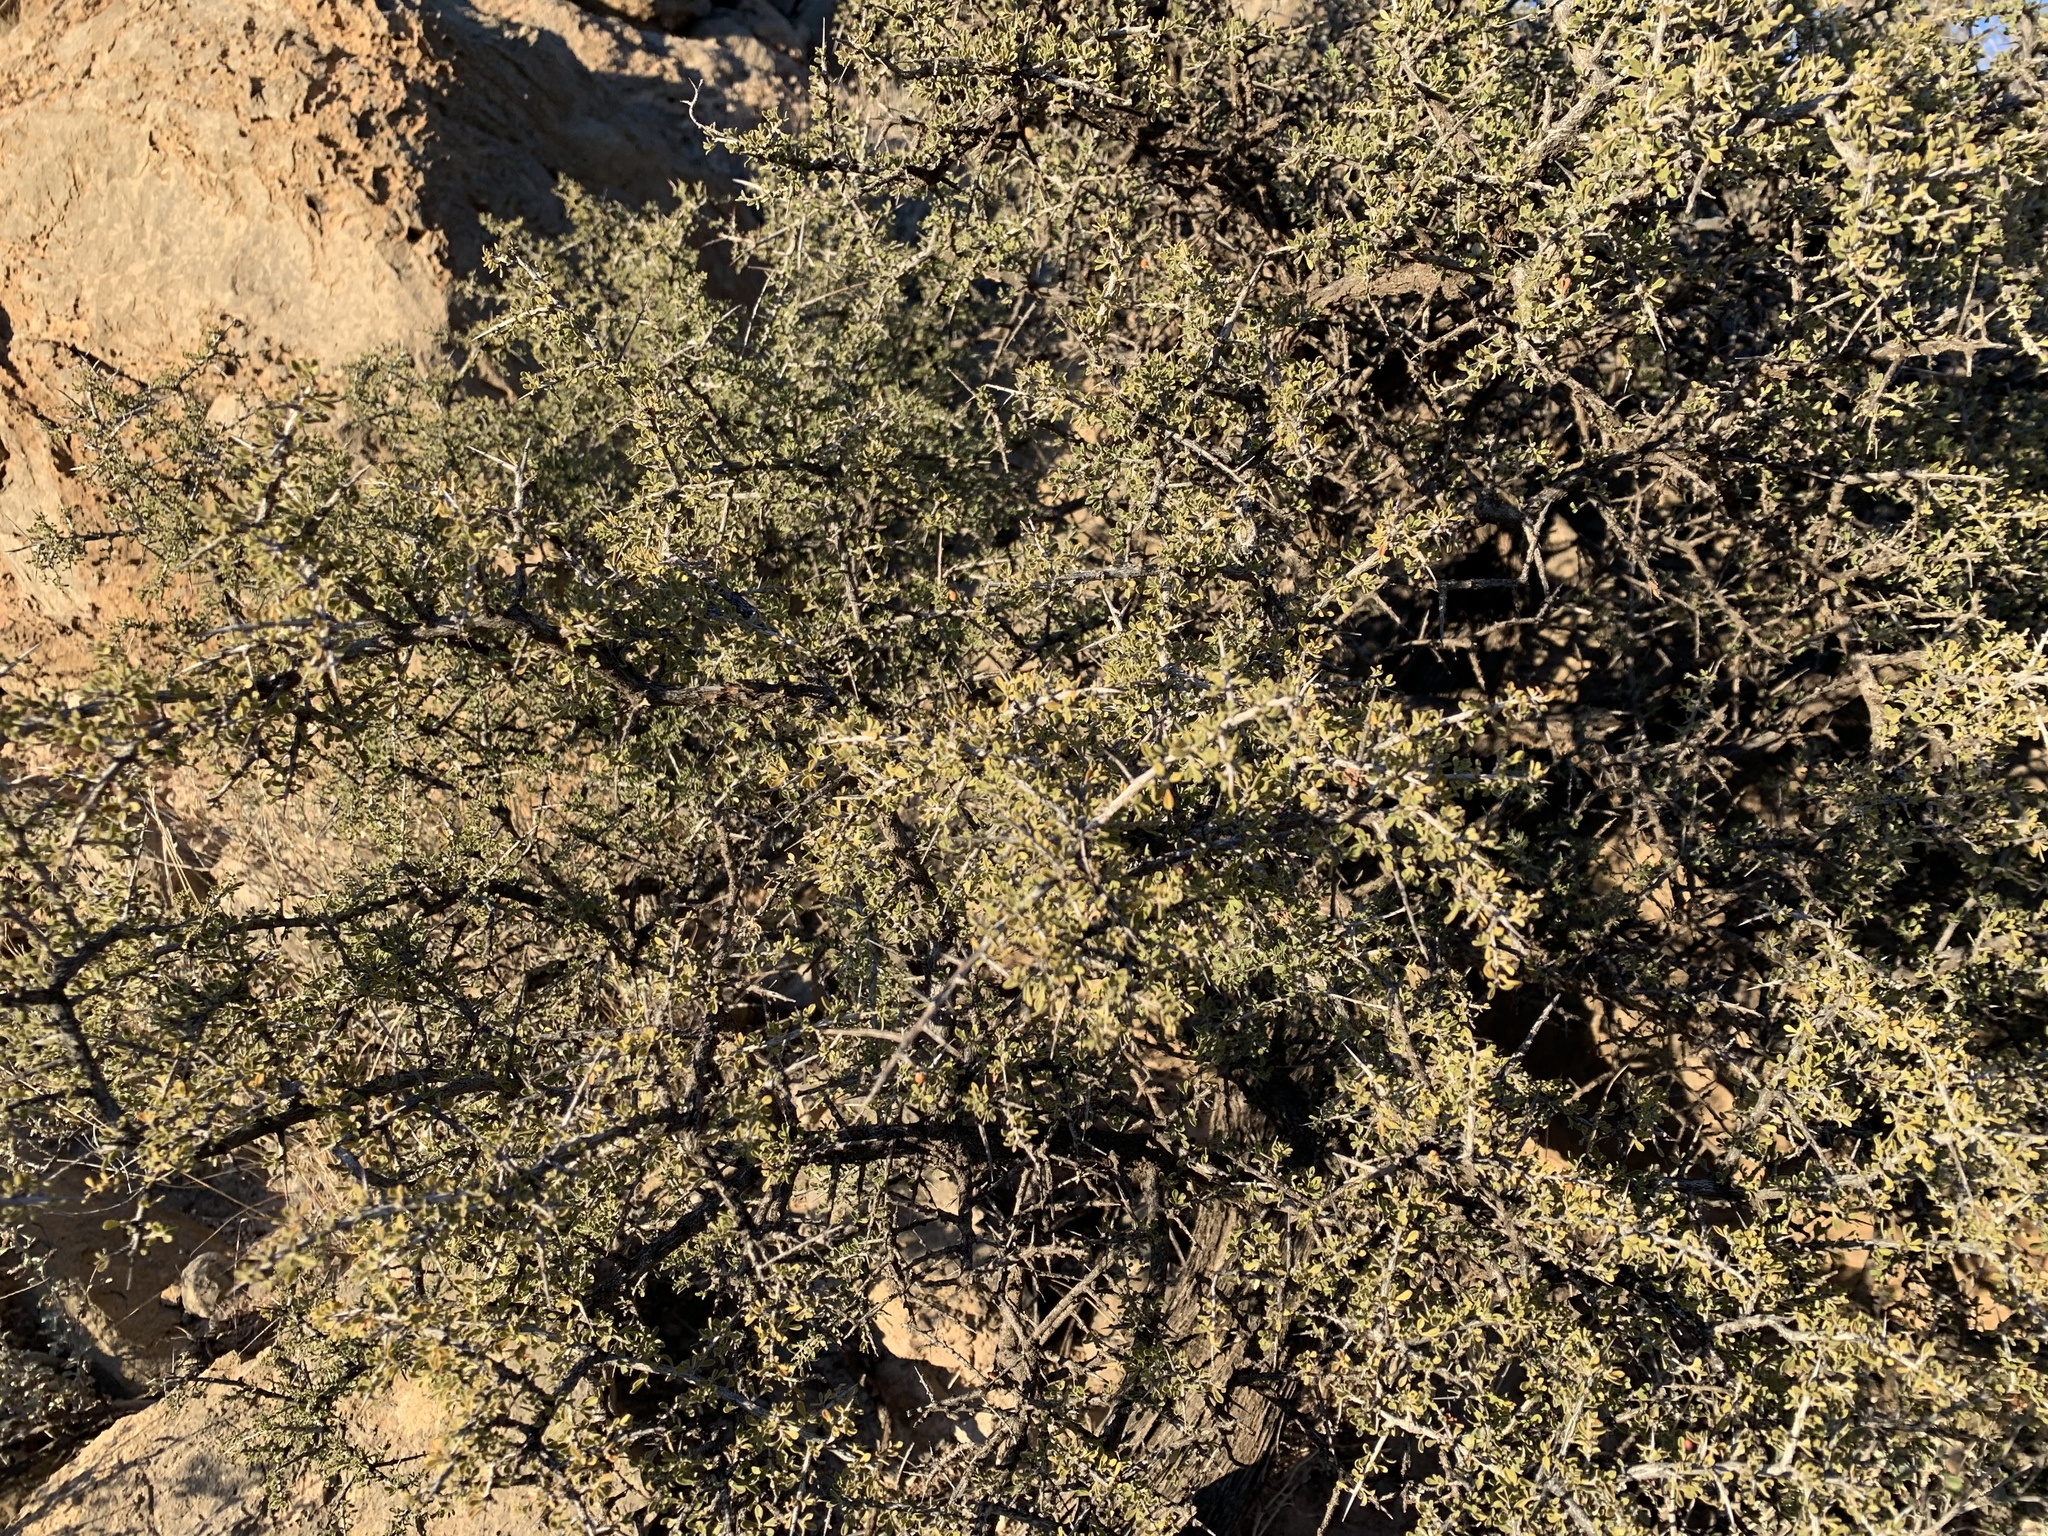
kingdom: Plantae
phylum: Tracheophyta
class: Magnoliopsida
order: Rosales
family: Rhamnaceae
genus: Condalia
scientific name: Condalia warnockii
